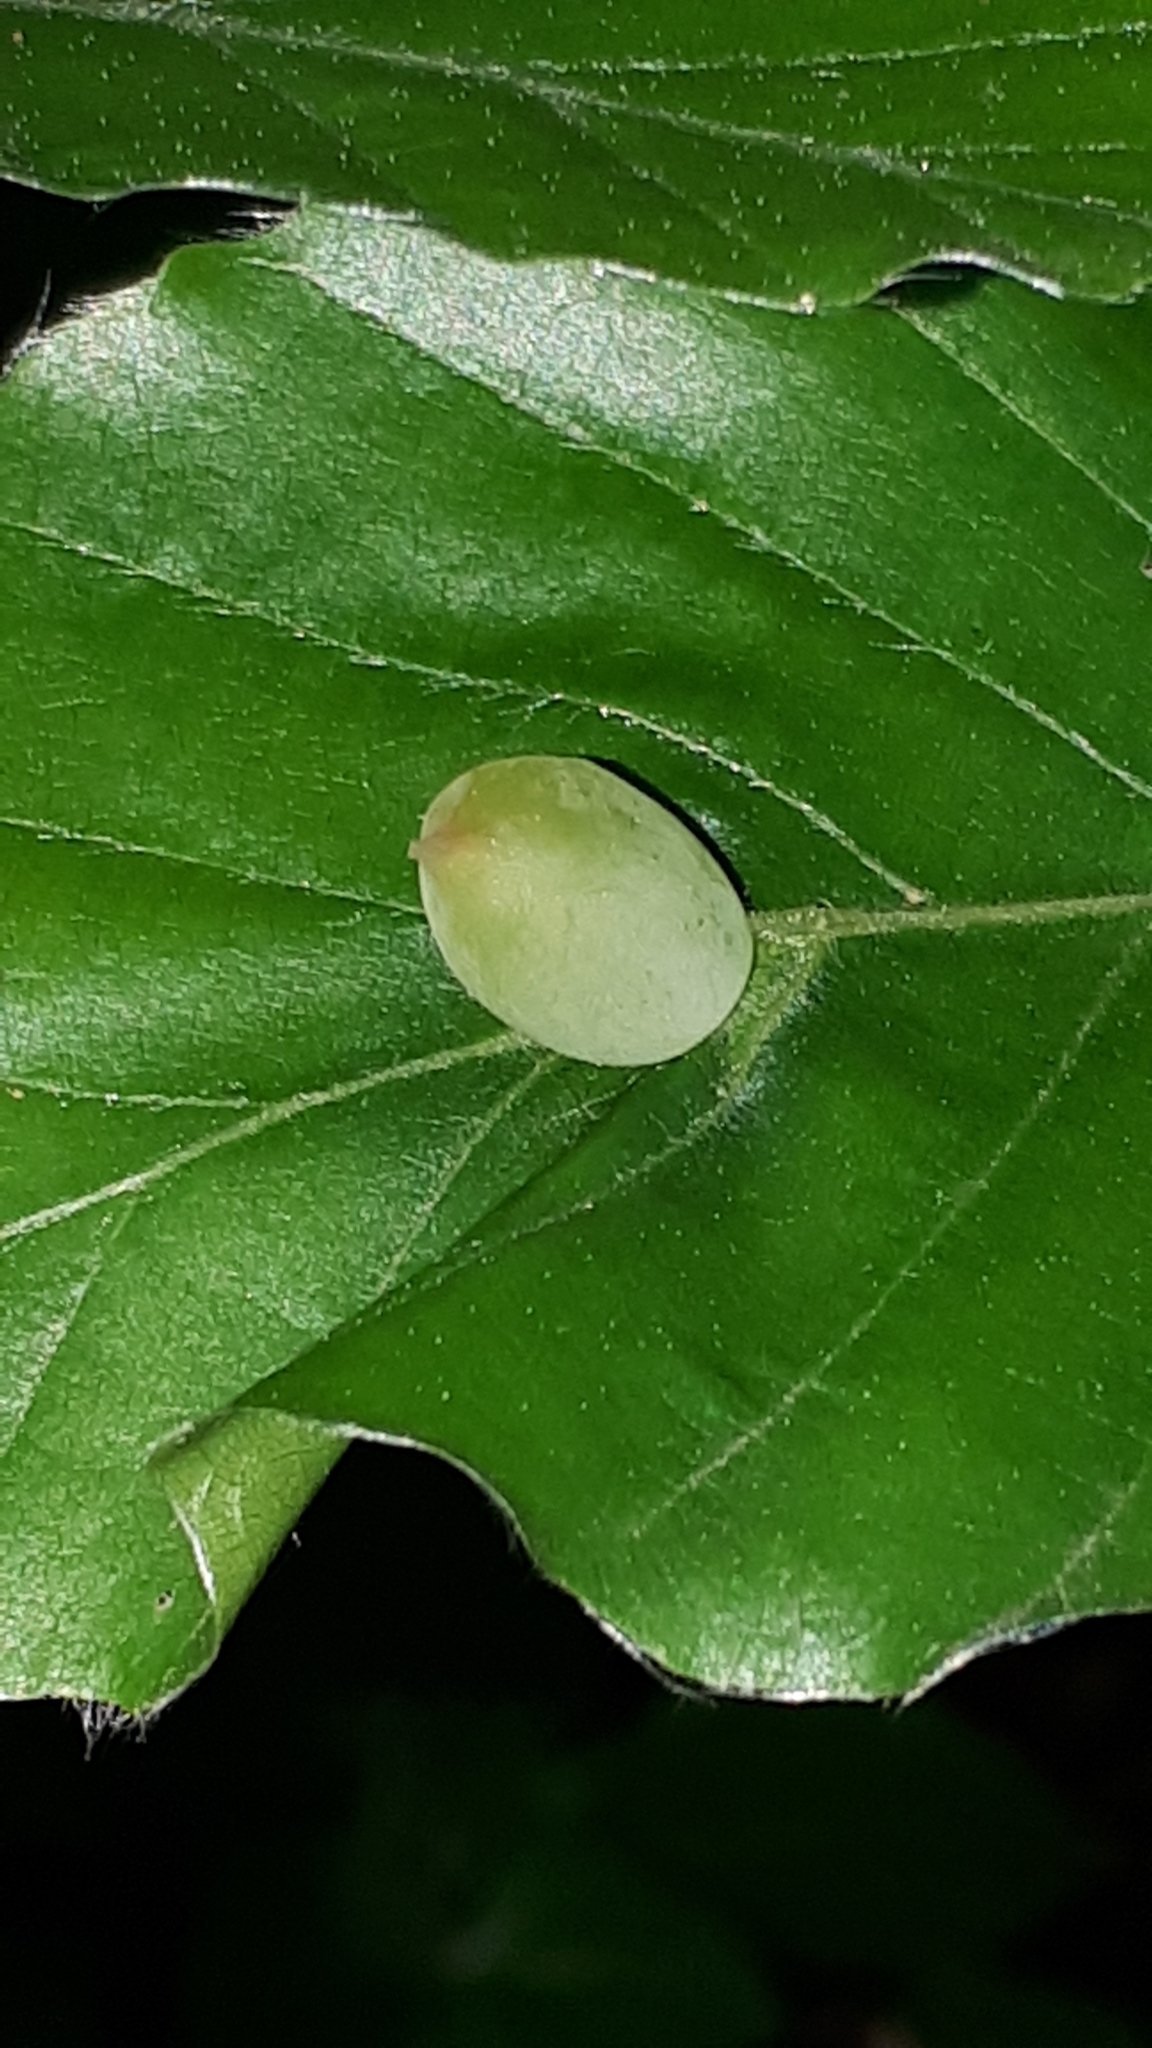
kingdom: Animalia
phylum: Arthropoda
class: Insecta
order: Diptera
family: Cecidomyiidae
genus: Mikiola
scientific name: Mikiola fagi
